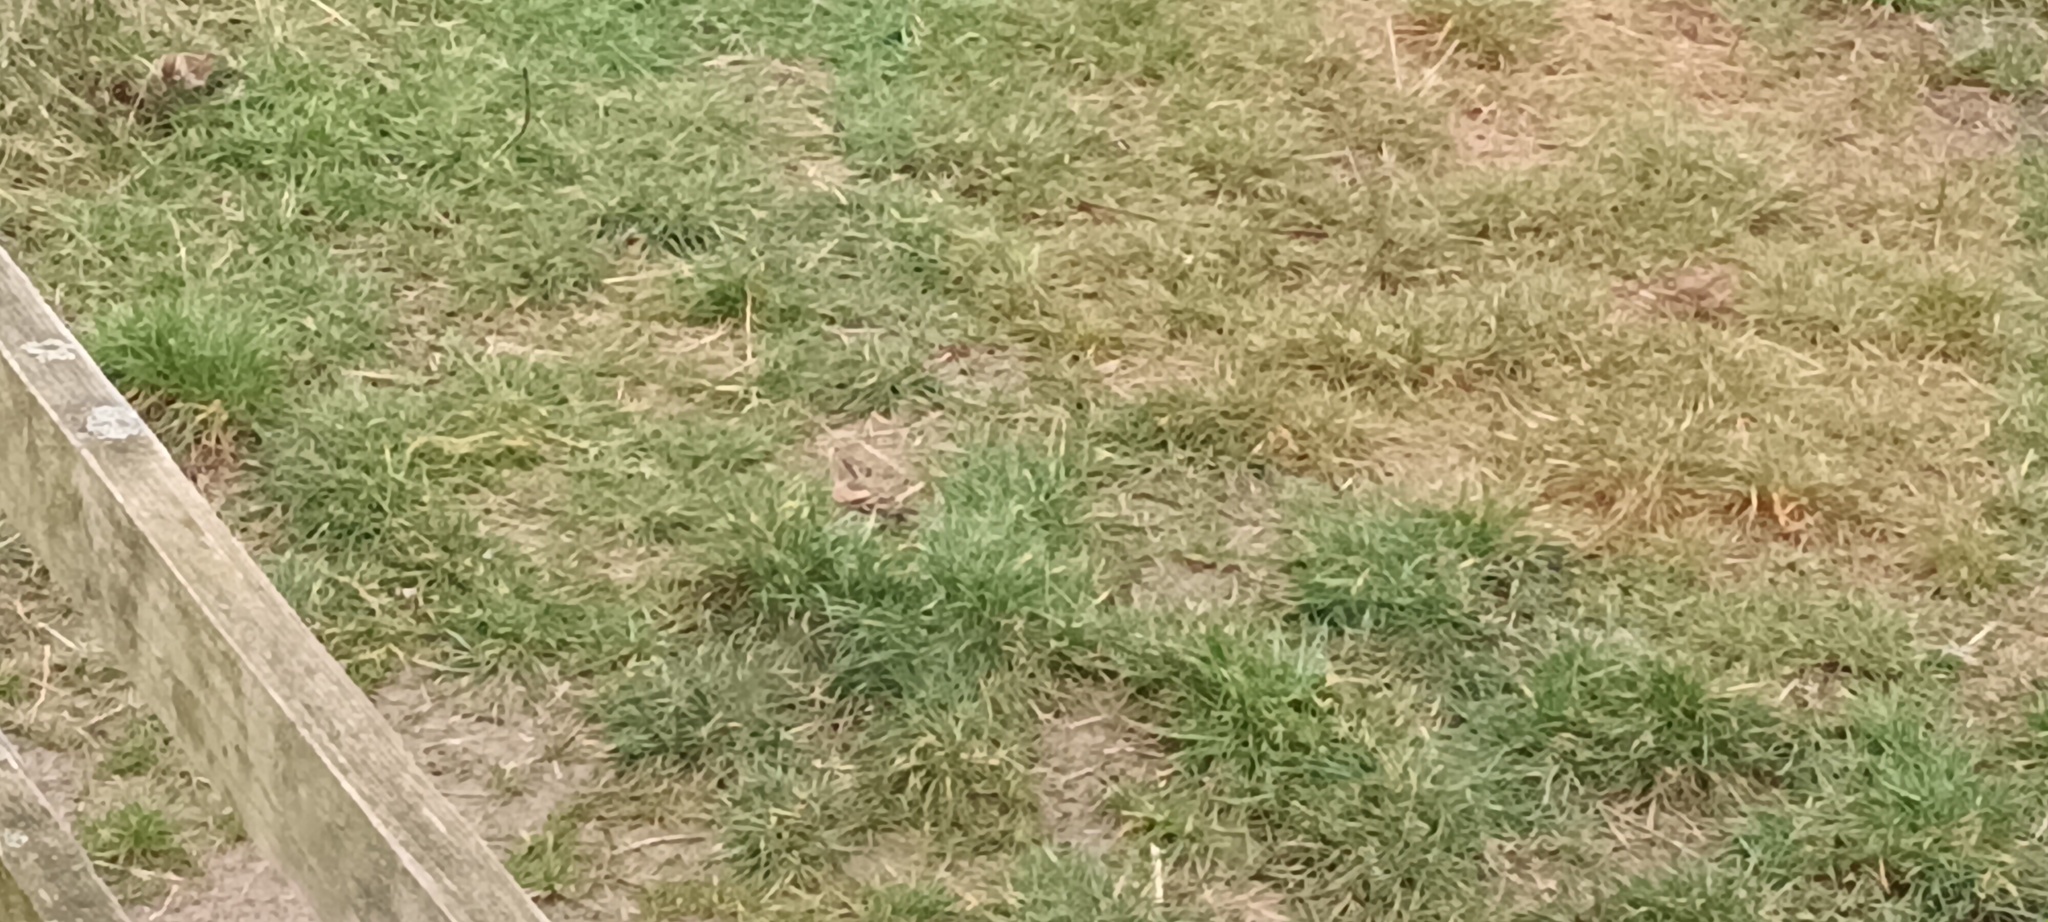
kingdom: Animalia
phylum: Chordata
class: Aves
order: Passeriformes
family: Fringillidae
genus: Fringilla
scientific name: Fringilla montifringilla
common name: Brambling
